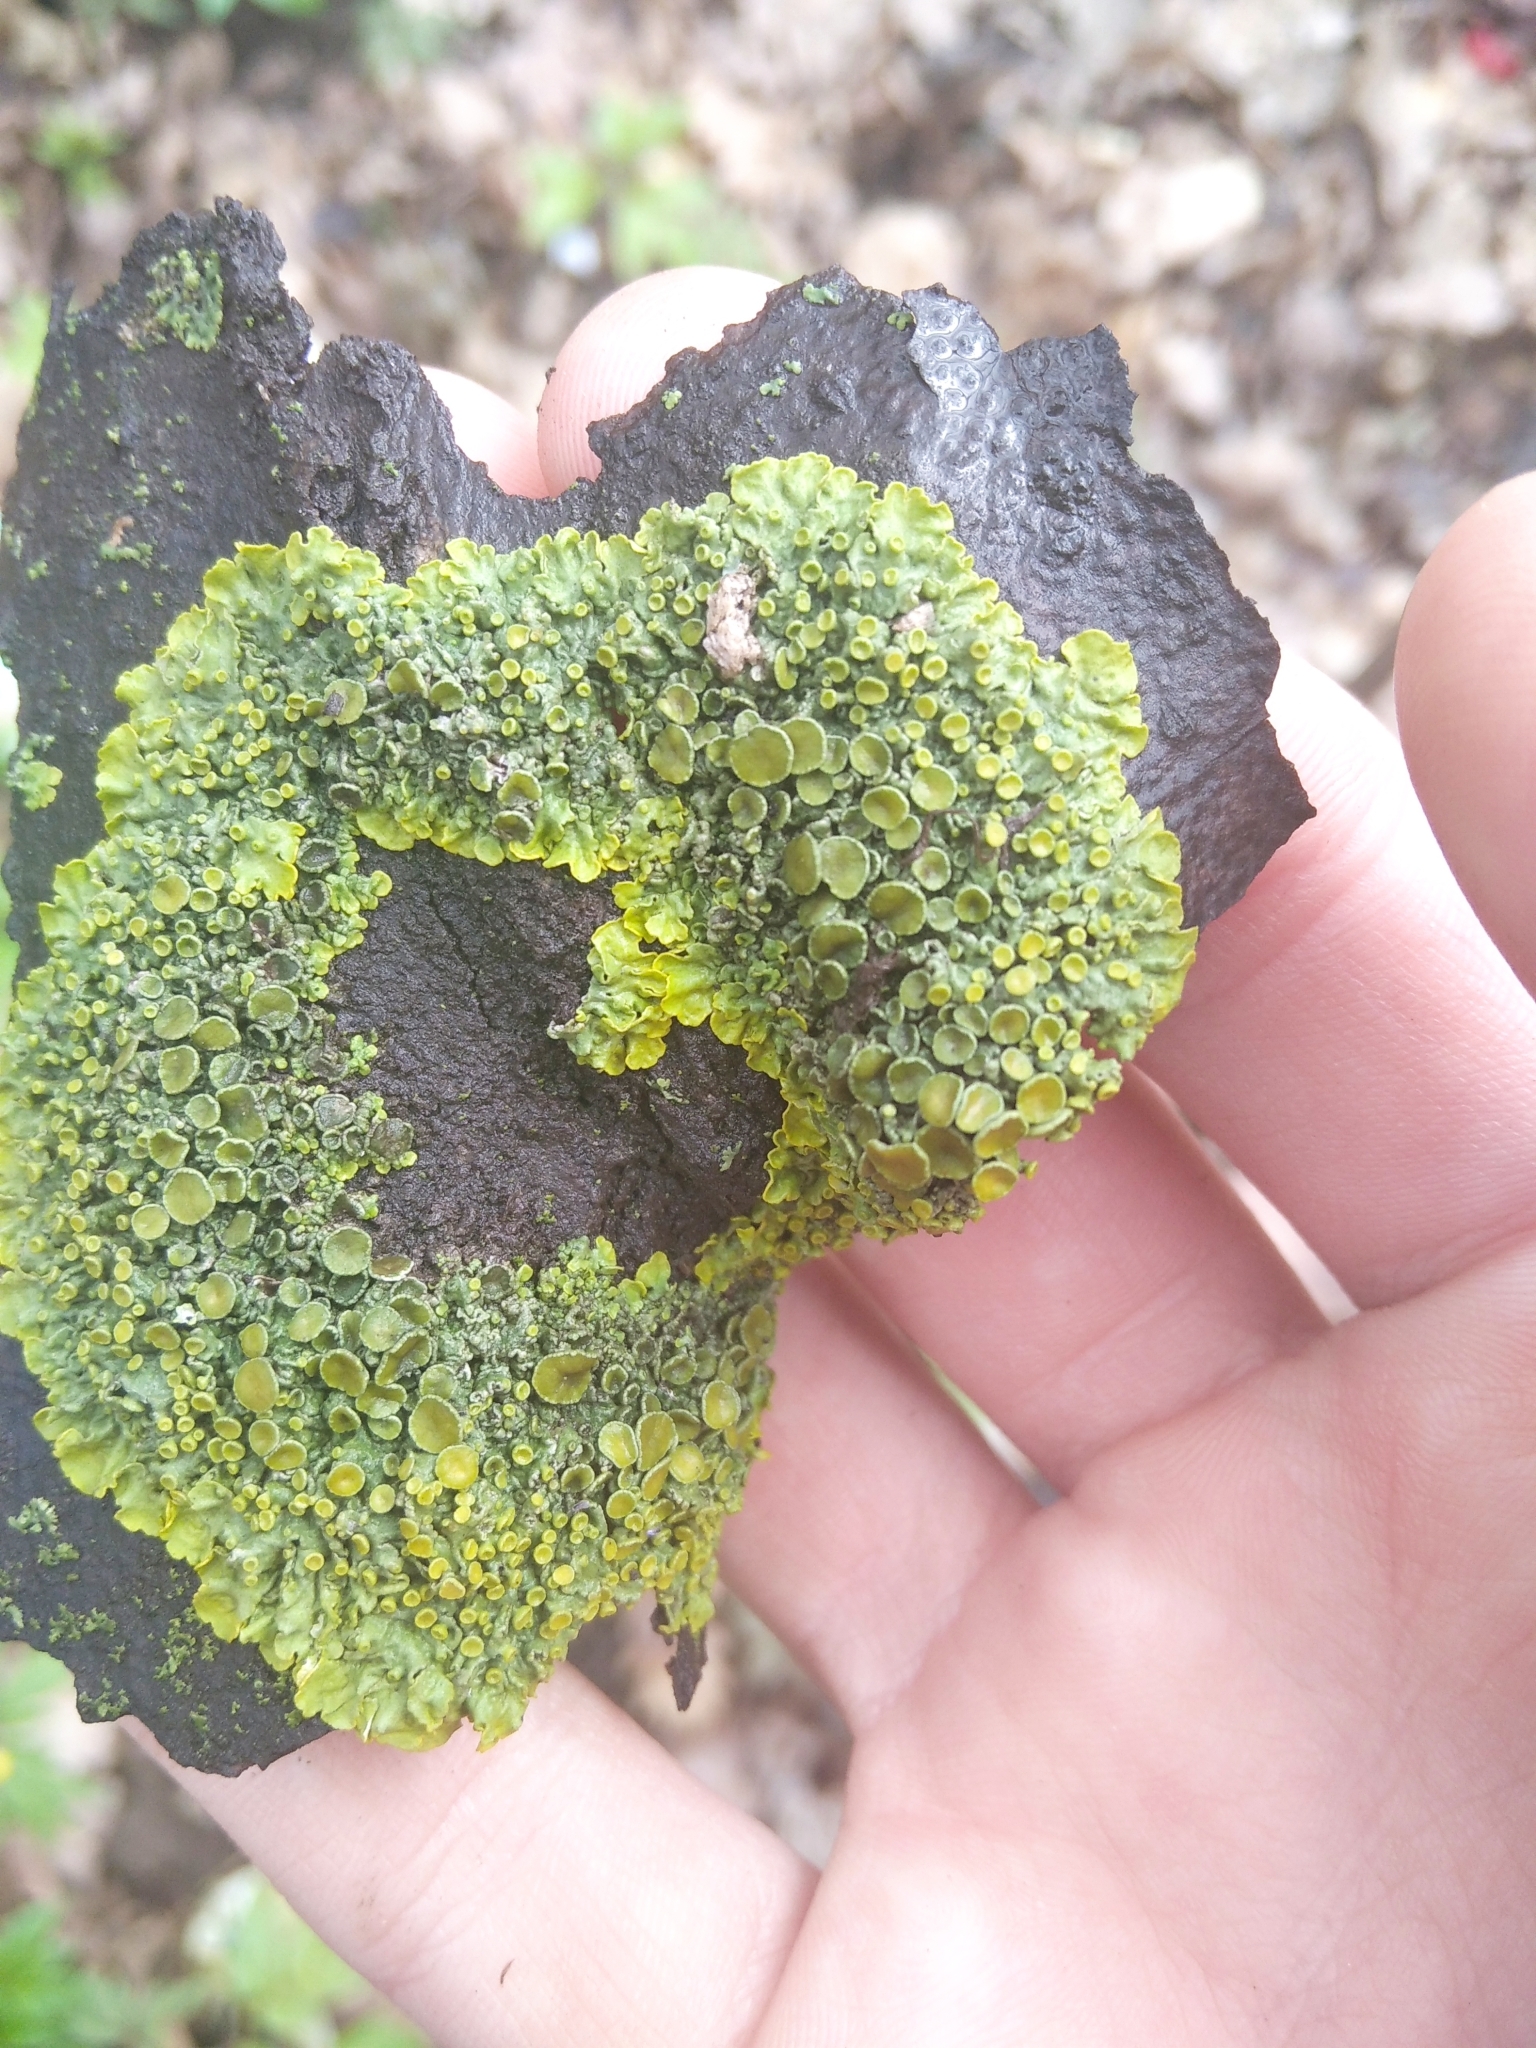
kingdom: Fungi
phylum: Ascomycota
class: Lecanoromycetes
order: Teloschistales
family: Teloschistaceae
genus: Xanthoria
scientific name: Xanthoria parietina
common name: Common orange lichen
